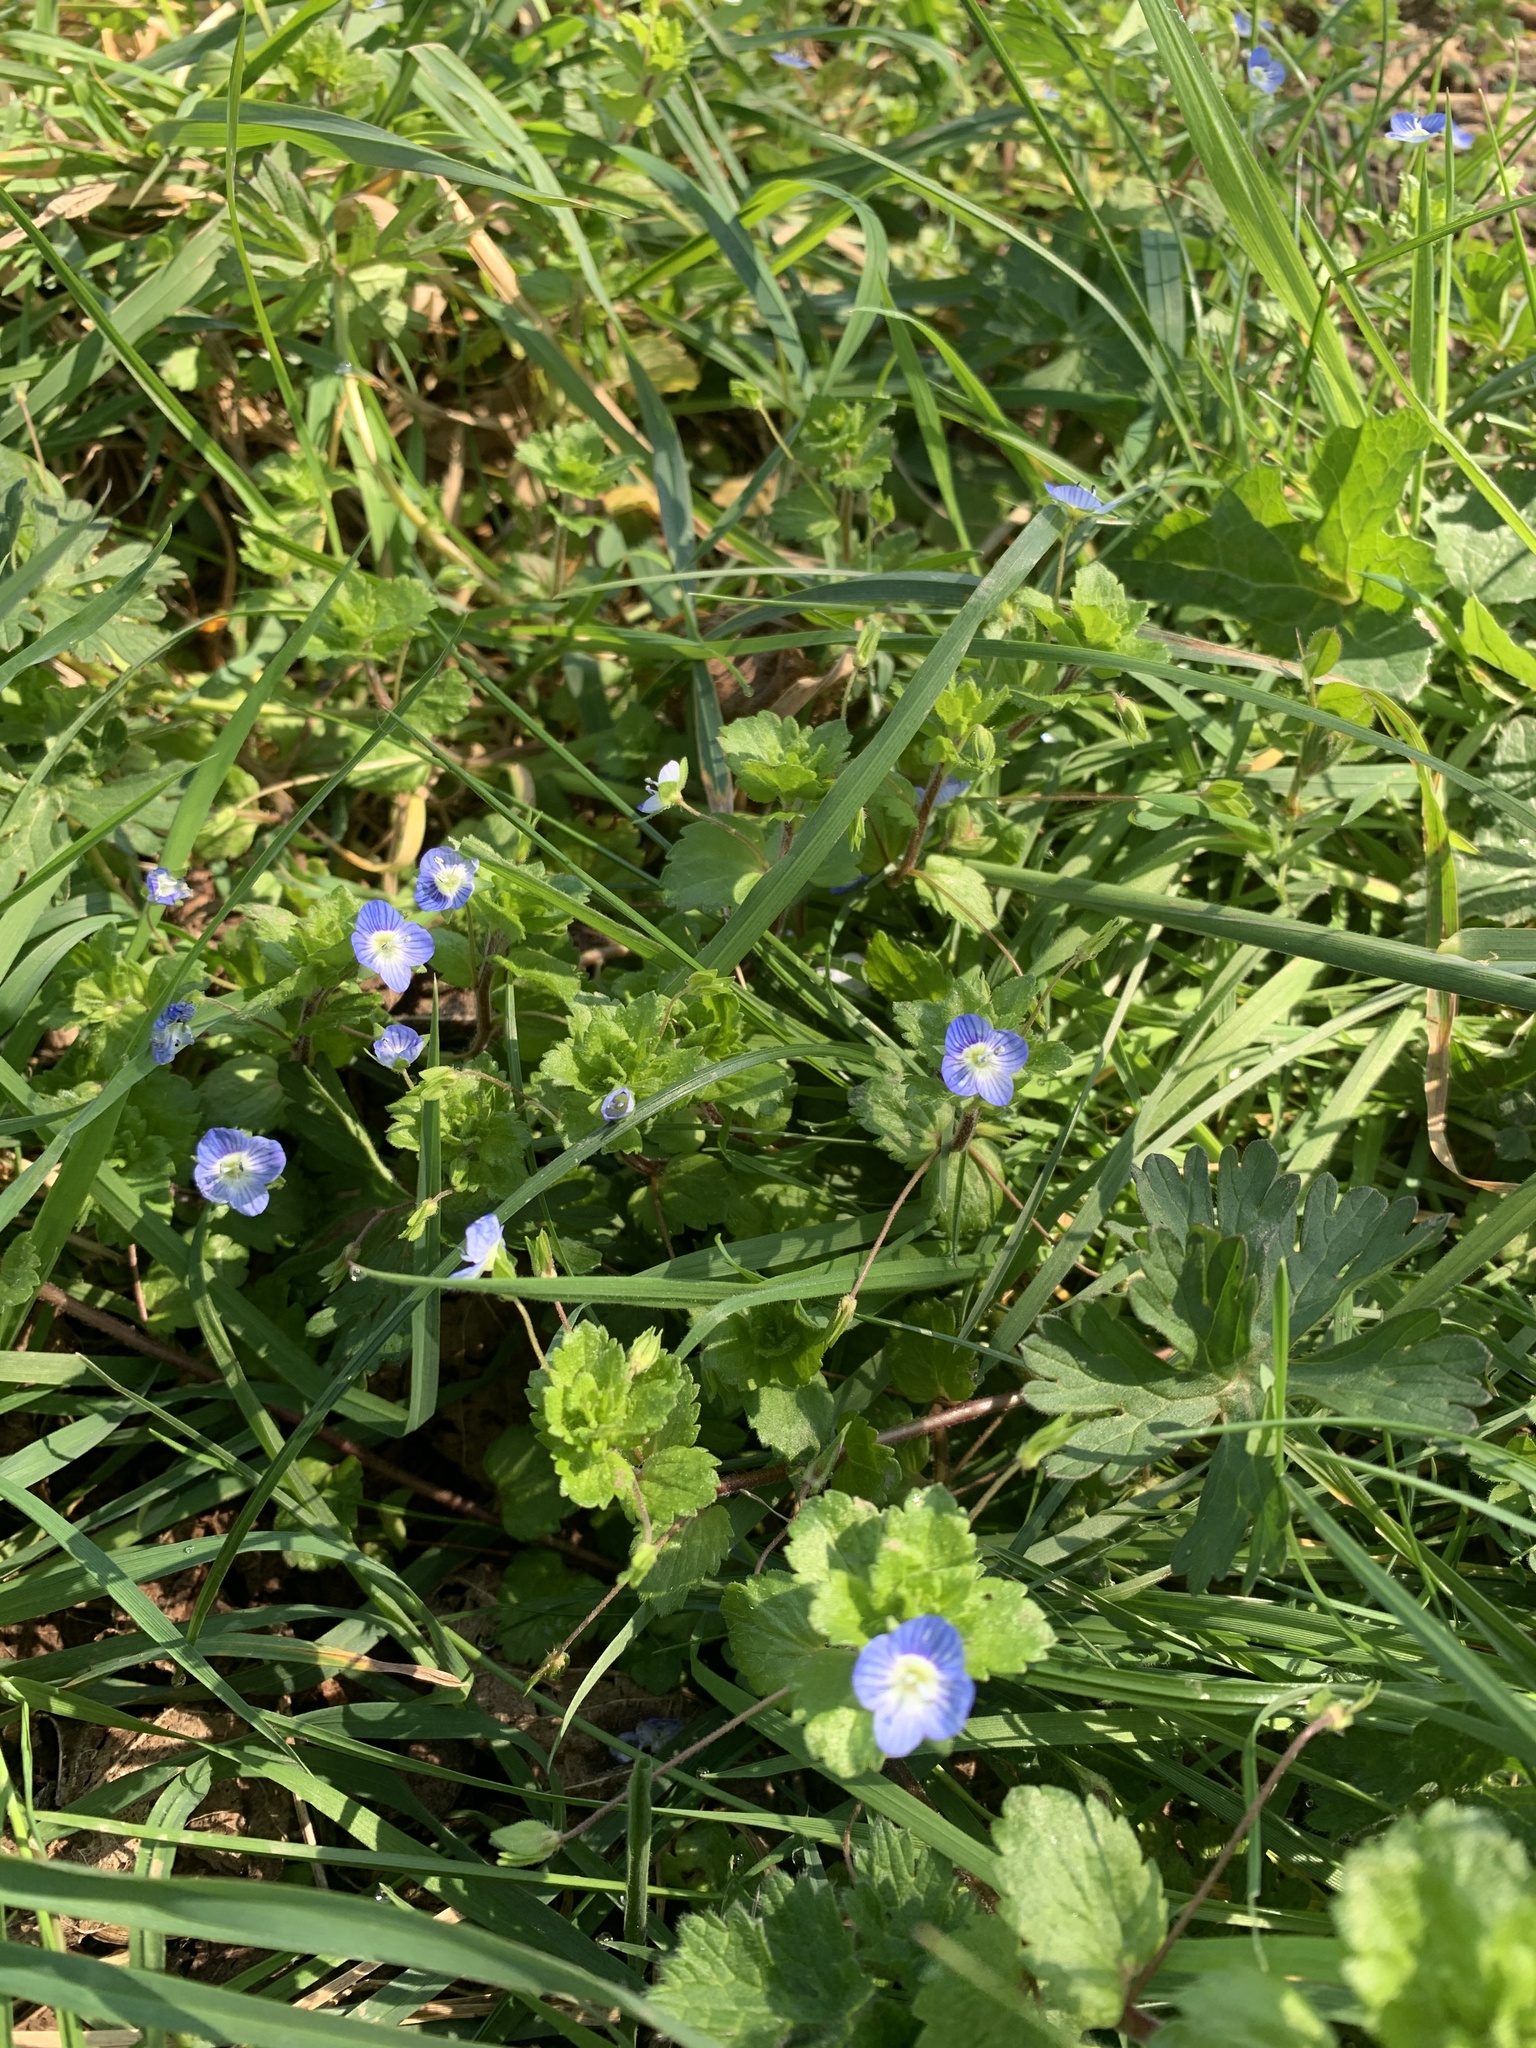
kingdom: Plantae
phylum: Tracheophyta
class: Magnoliopsida
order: Lamiales
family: Plantaginaceae
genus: Veronica
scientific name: Veronica persica
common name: Common field-speedwell
